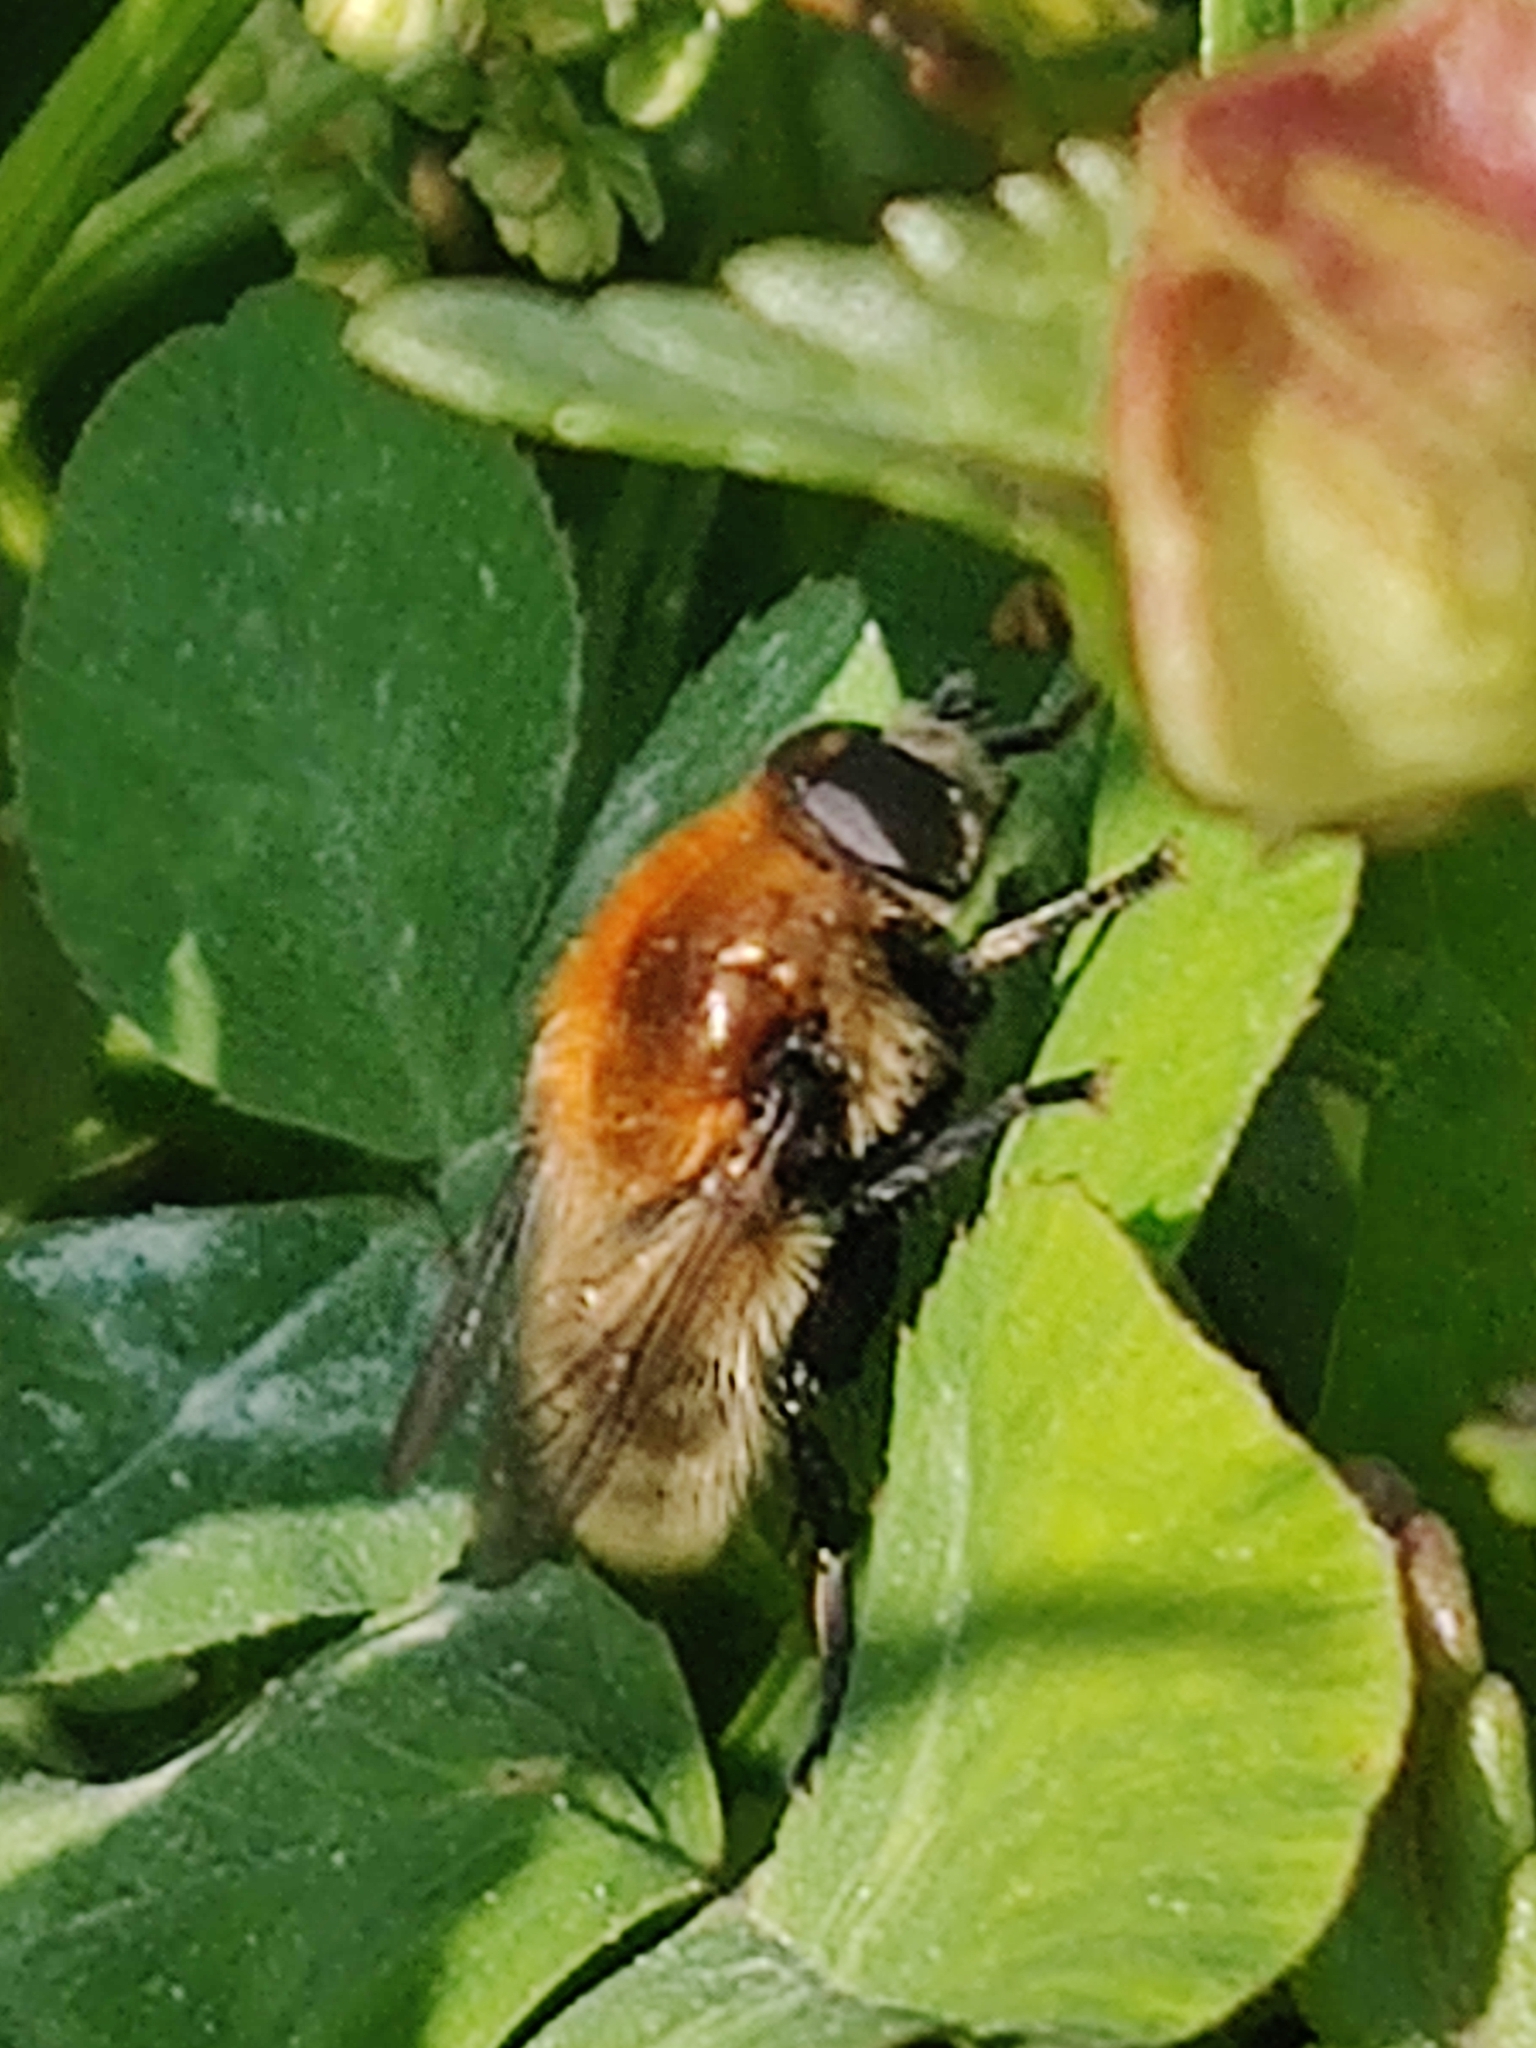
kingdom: Animalia
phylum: Arthropoda
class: Insecta
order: Diptera
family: Syrphidae
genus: Merodon
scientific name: Merodon equestris
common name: Greater bulb-fly
